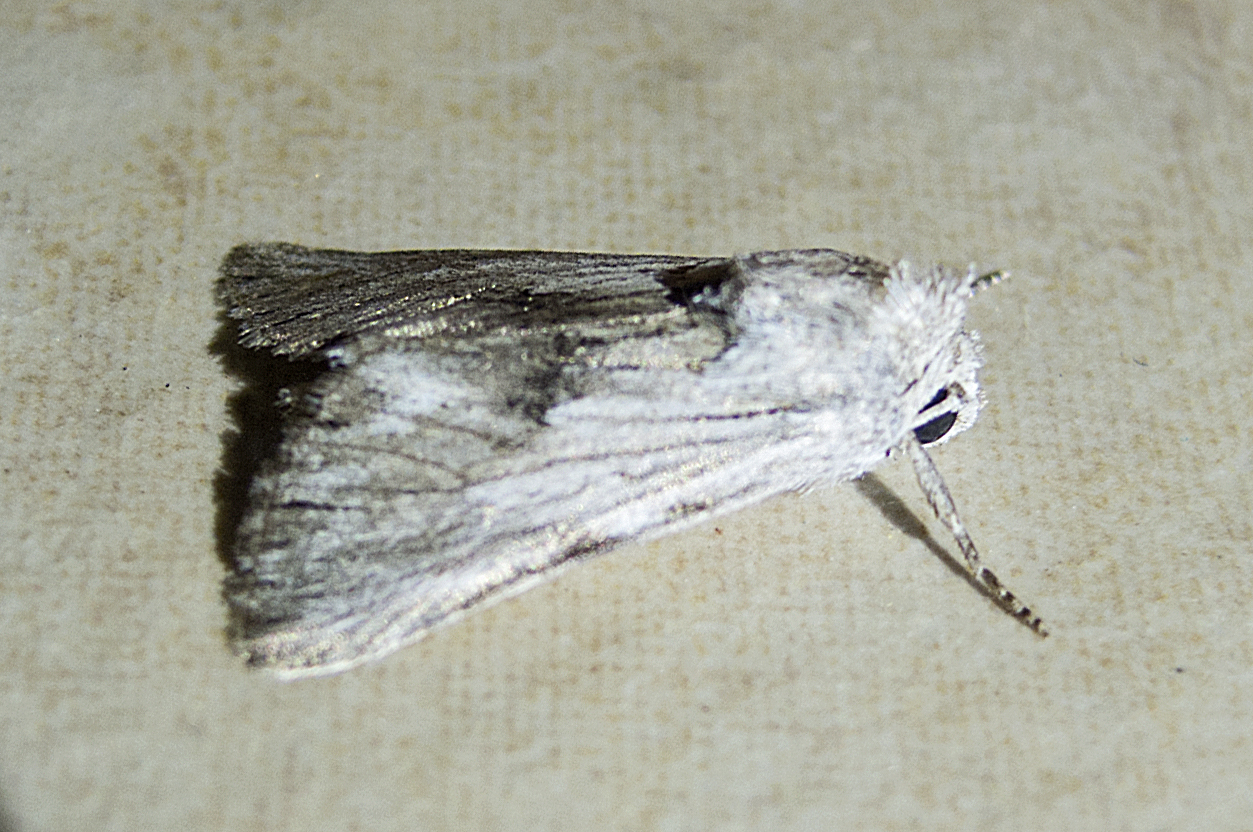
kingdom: Animalia
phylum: Arthropoda
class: Insecta
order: Lepidoptera
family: Noctuidae
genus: Calophasia
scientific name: Calophasia platyptera
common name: Antirrhinum brocade
